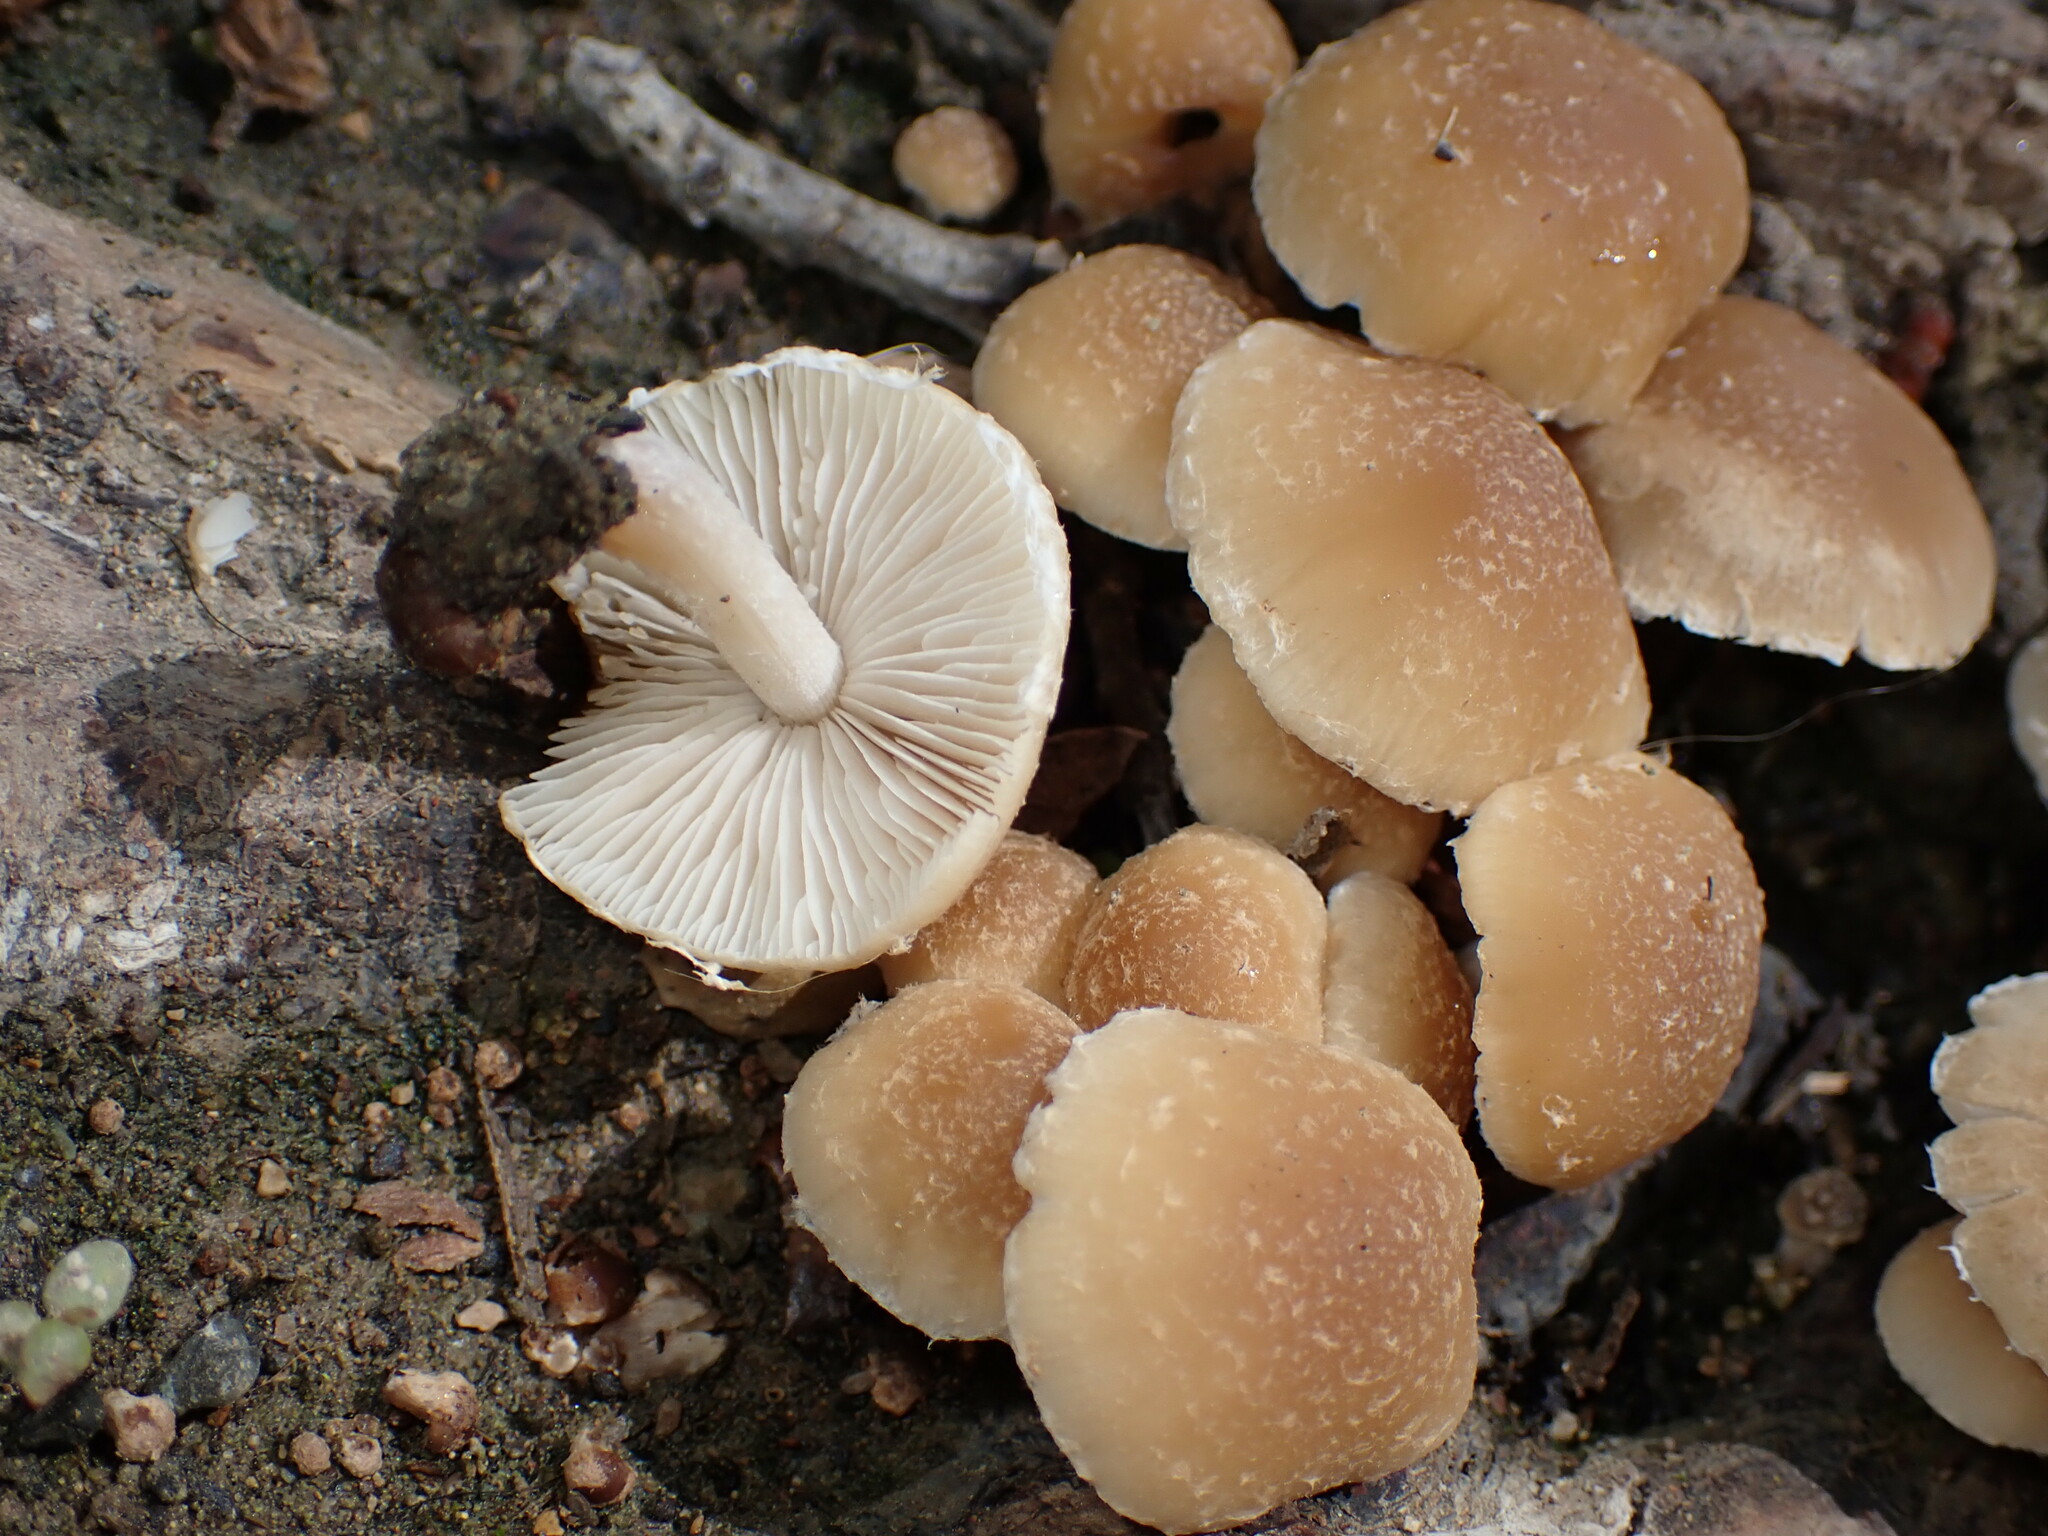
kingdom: Fungi
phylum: Basidiomycota
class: Agaricomycetes
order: Agaricales
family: Psathyrellaceae
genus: Candolleomyces
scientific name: Candolleomyces candolleanus
